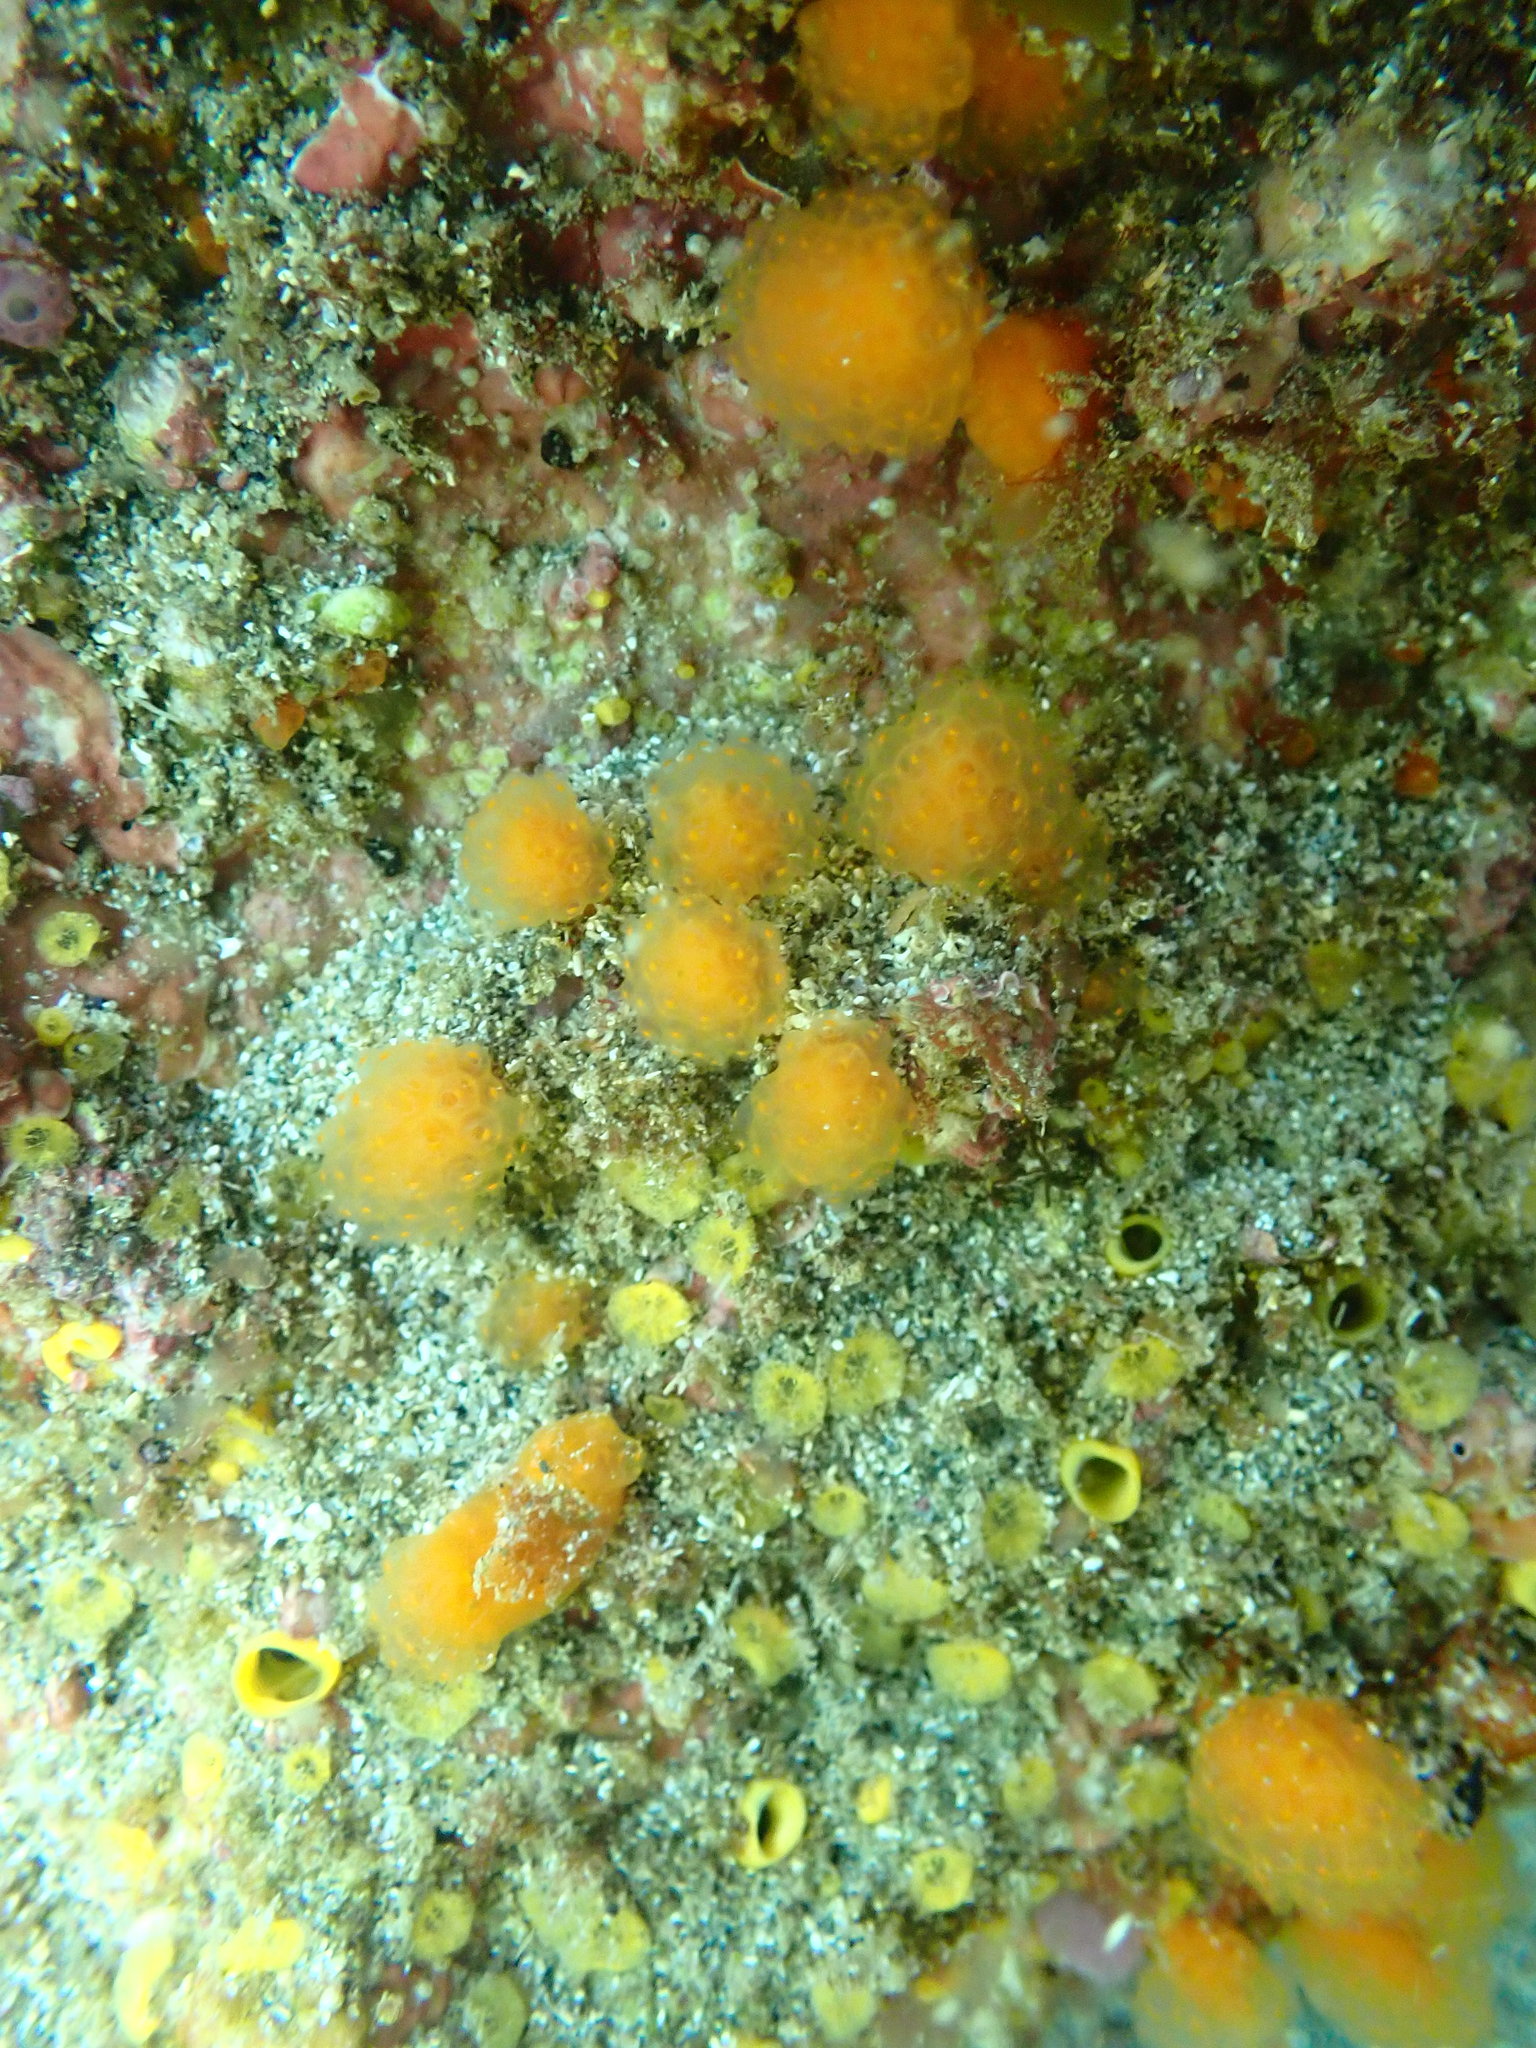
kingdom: Animalia
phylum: Chordata
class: Ascidiacea
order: Aplousobranchia
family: Pseudodistomidae
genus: Pseudodistoma
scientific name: Pseudodistoma novaezelandiae
